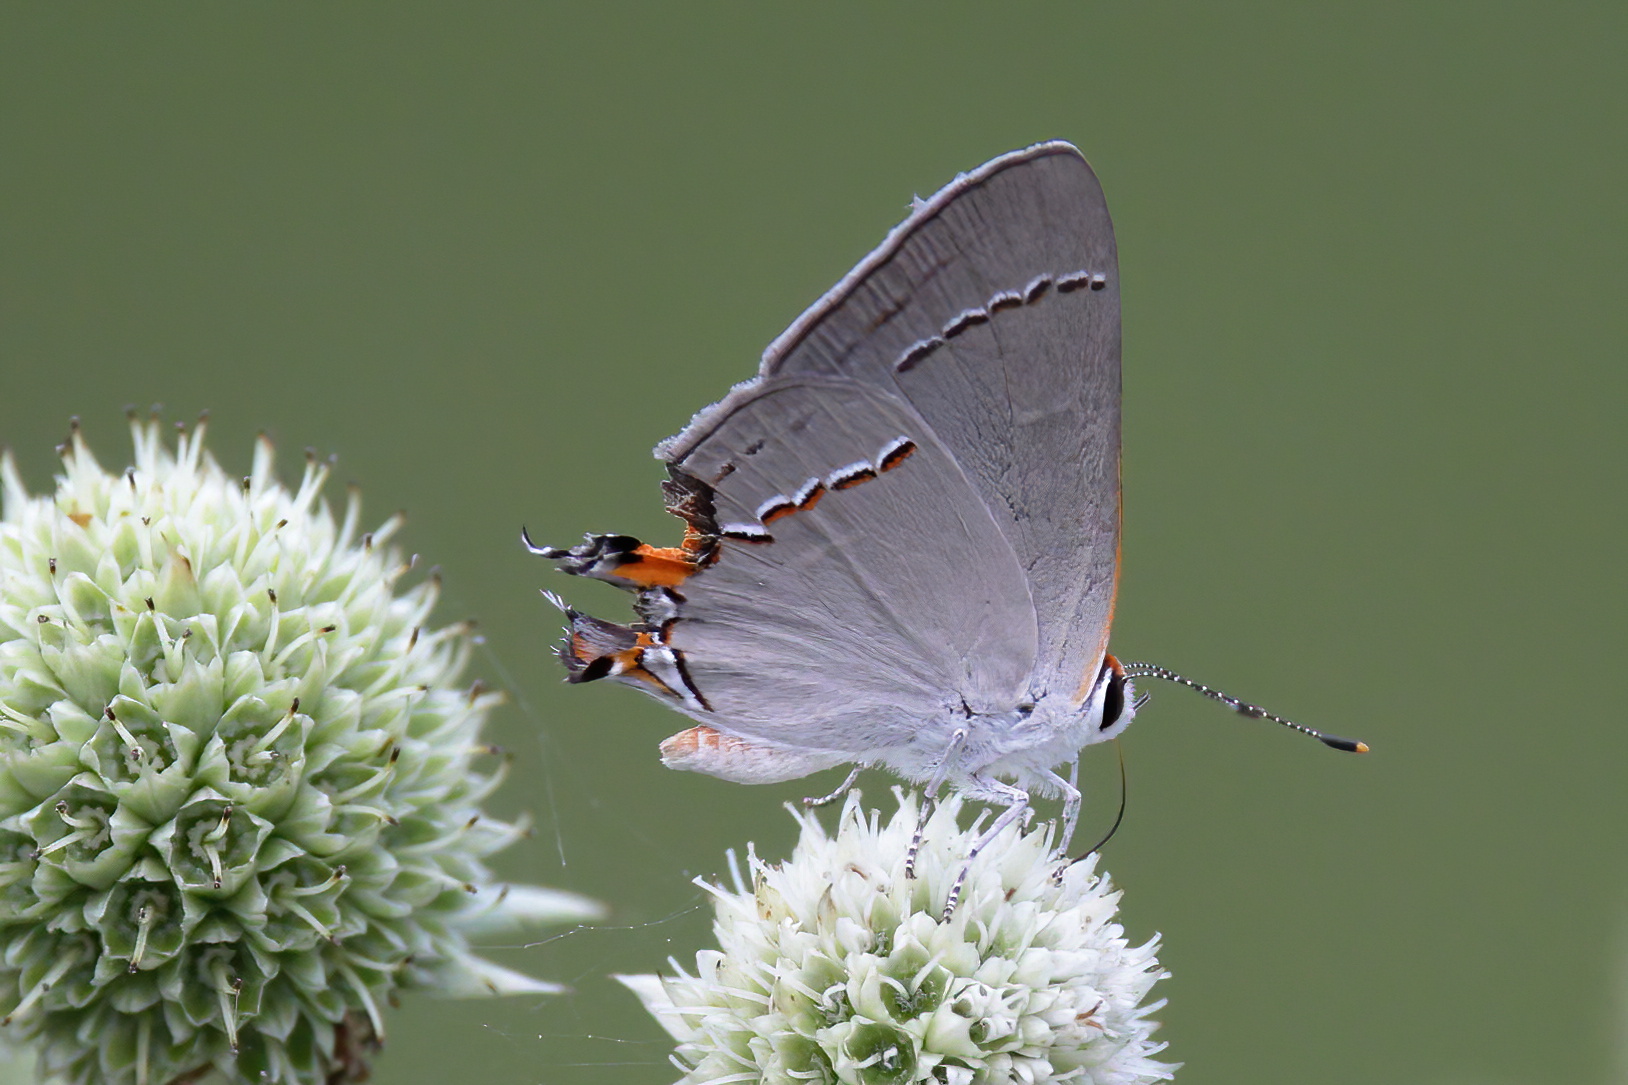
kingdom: Animalia
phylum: Arthropoda
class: Insecta
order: Lepidoptera
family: Lycaenidae
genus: Strymon
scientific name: Strymon melinus
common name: Gray hairstreak
